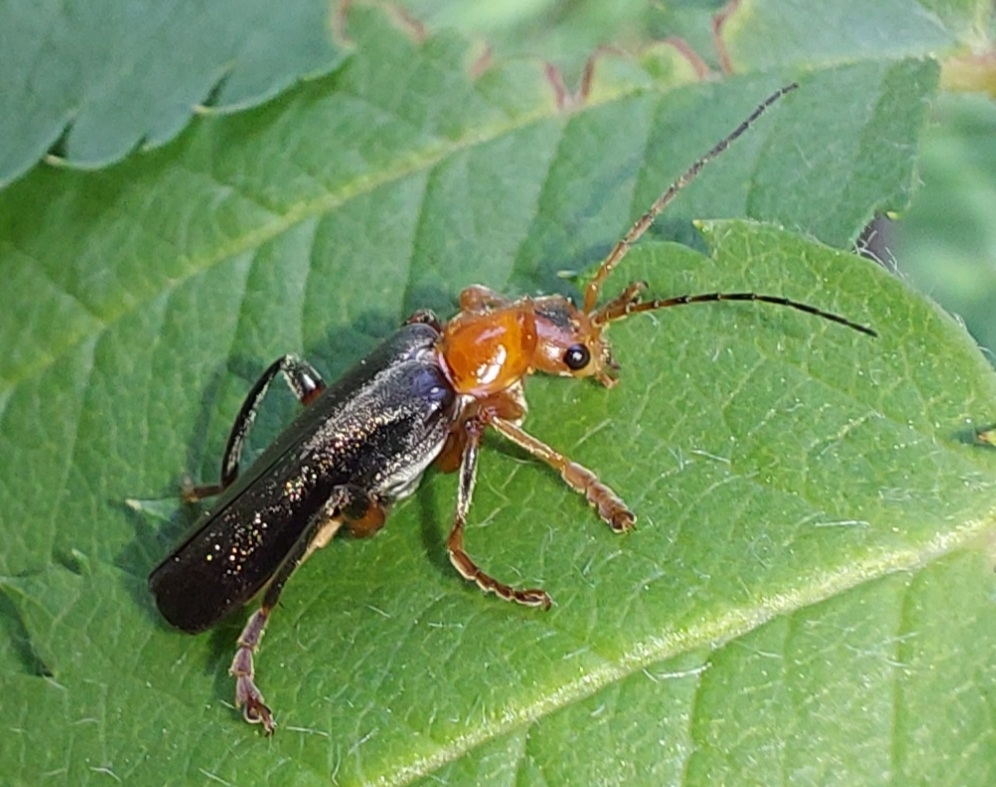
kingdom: Animalia
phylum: Arthropoda
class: Insecta
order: Coleoptera
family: Cantharidae
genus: Cantharis
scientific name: Cantharis livida
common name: Livid soldier beetle
